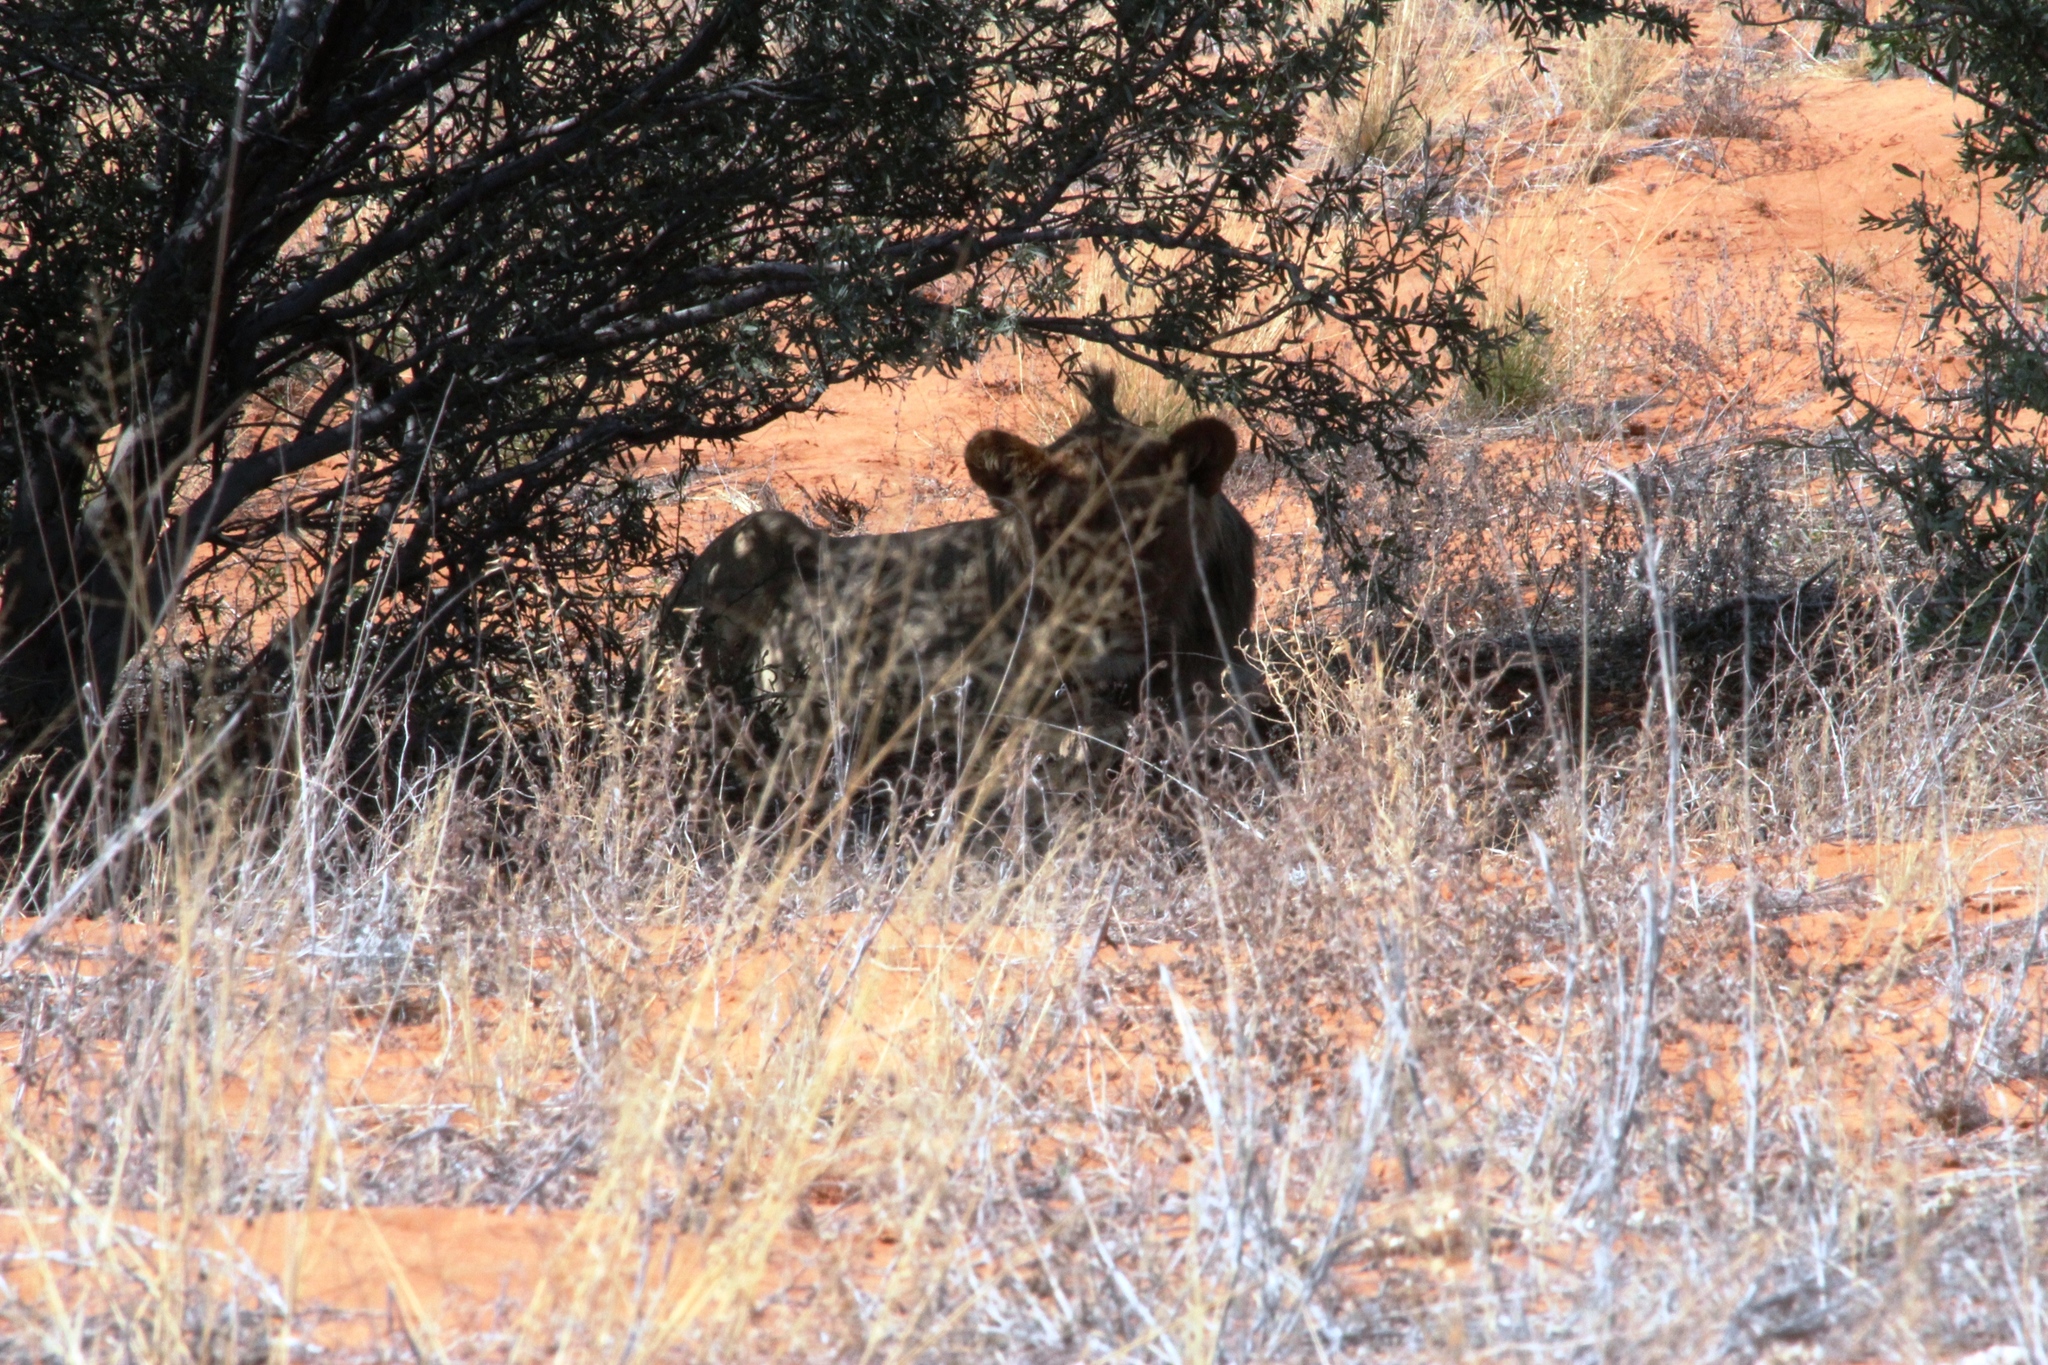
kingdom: Animalia
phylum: Chordata
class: Mammalia
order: Carnivora
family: Felidae
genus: Panthera
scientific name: Panthera leo
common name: Lion
